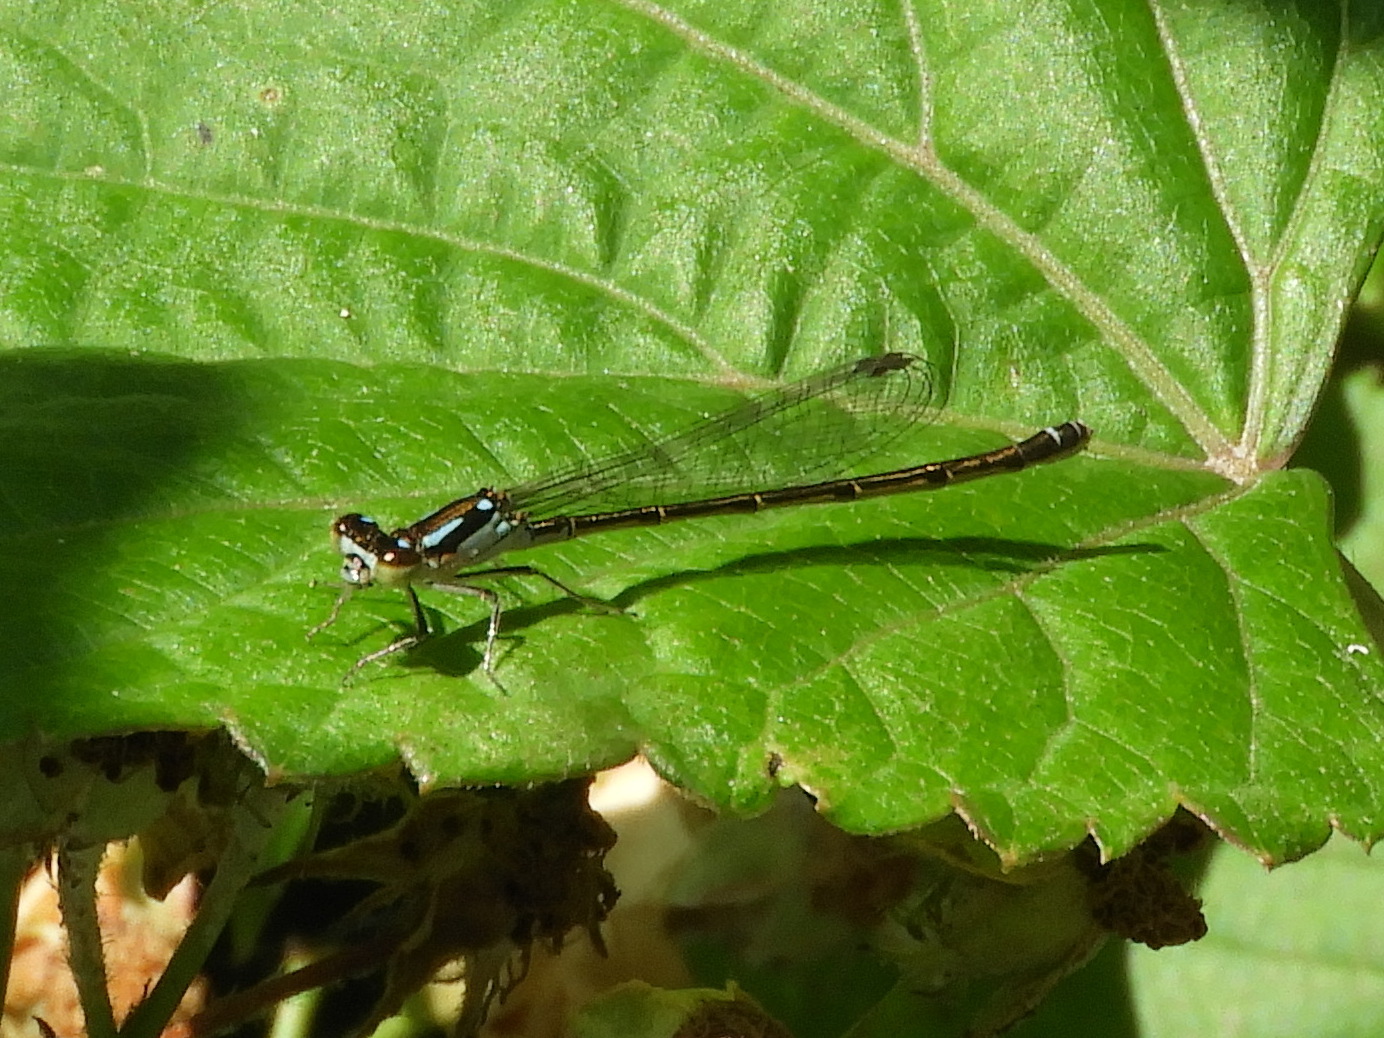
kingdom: Animalia
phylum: Arthropoda
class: Insecta
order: Odonata
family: Coenagrionidae
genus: Ischnura
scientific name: Ischnura posita
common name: Fragile forktail
